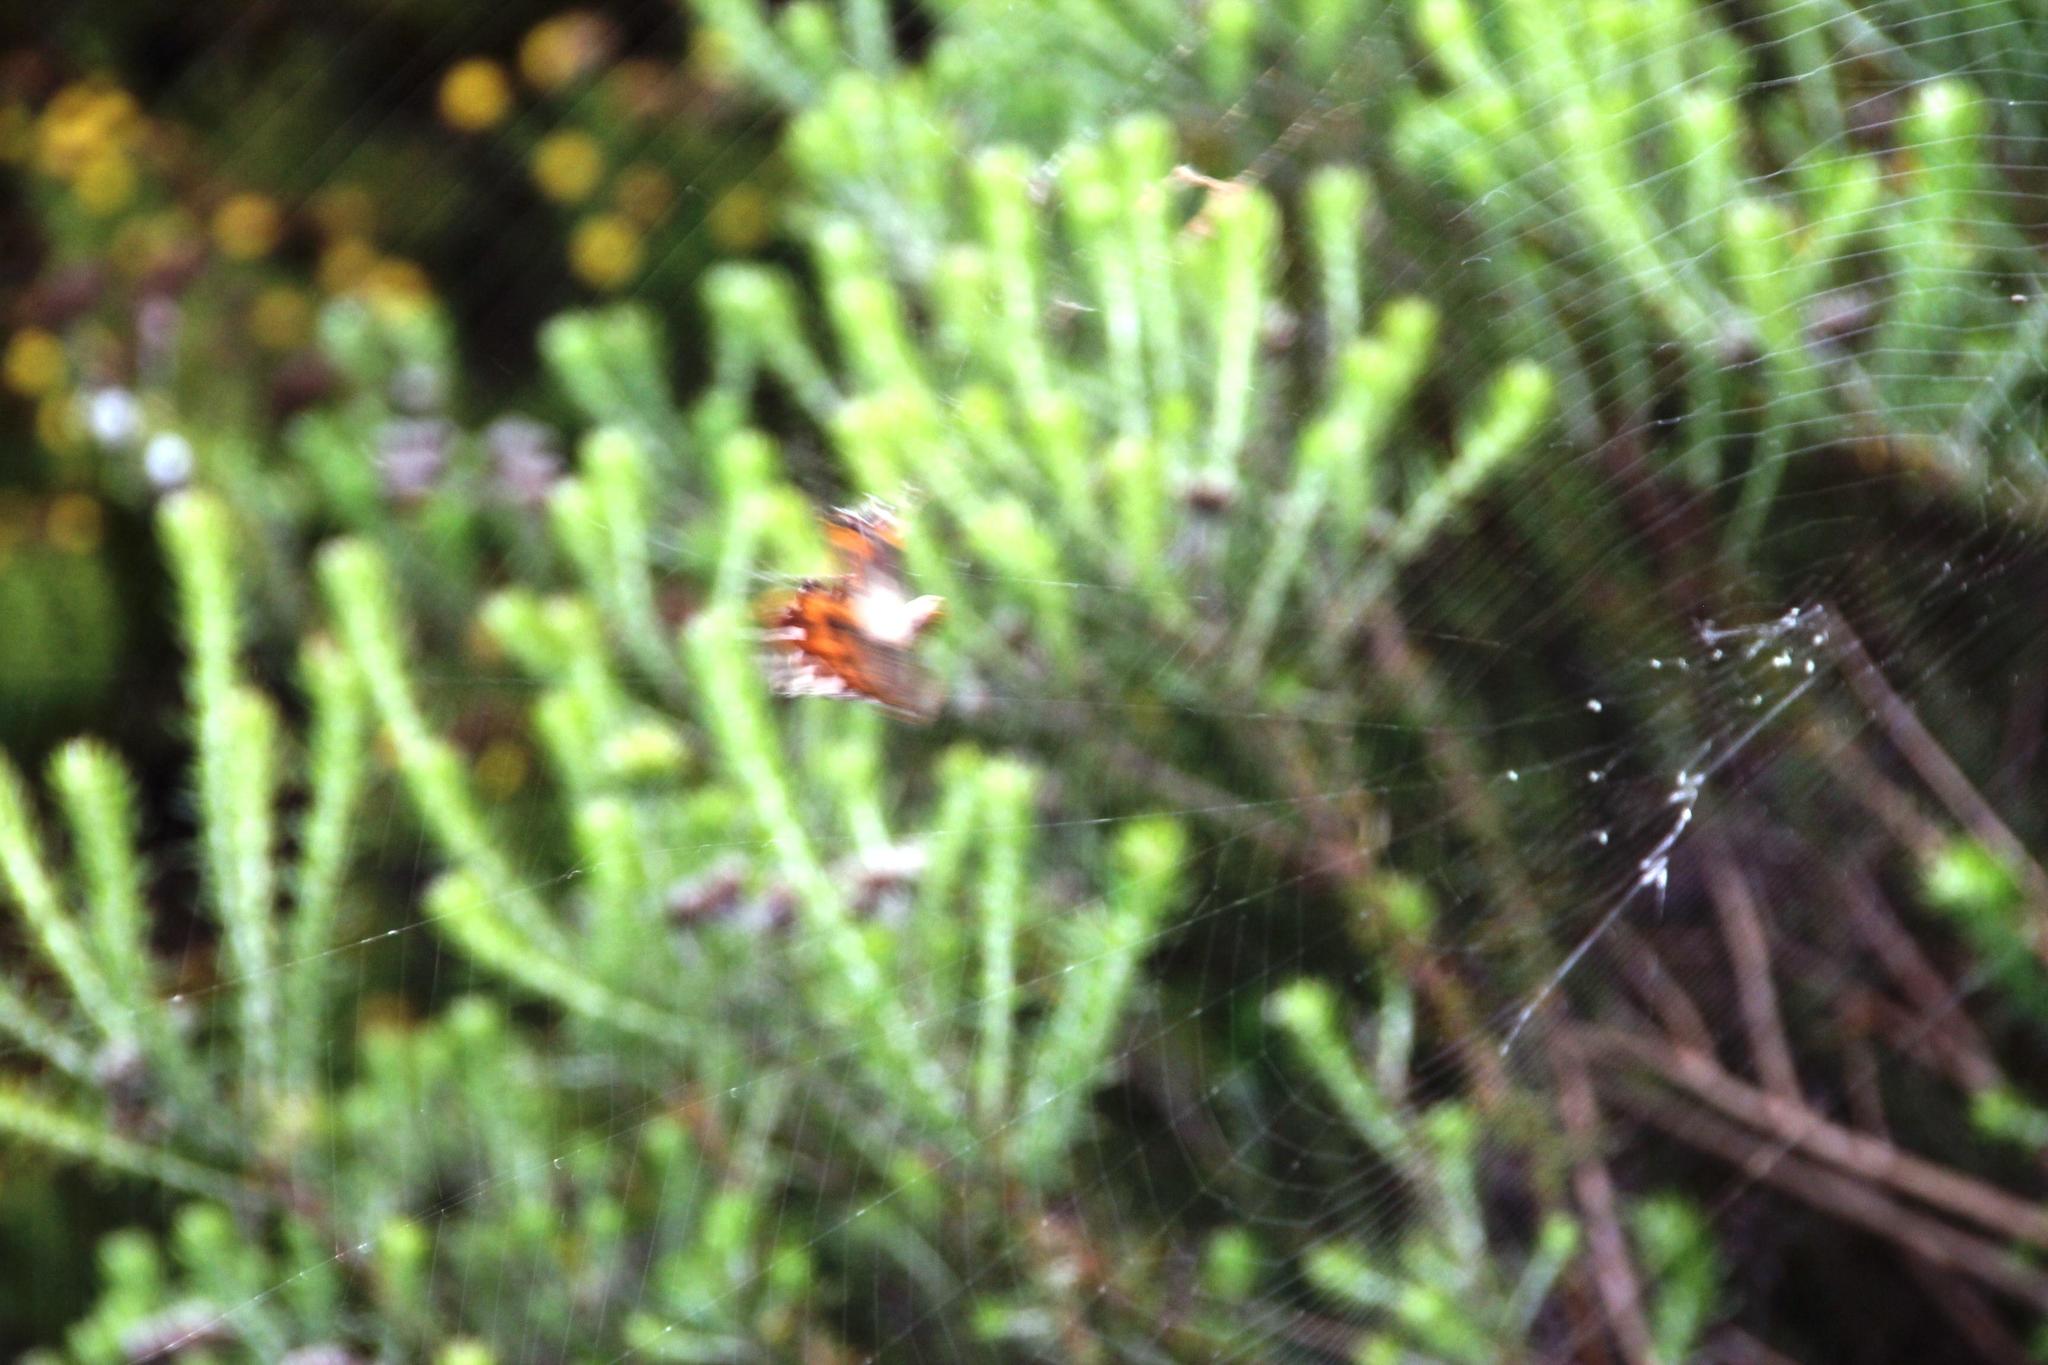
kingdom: Animalia
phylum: Arthropoda
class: Arachnida
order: Araneae
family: Araneidae
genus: Argiope
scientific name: Argiope australis
